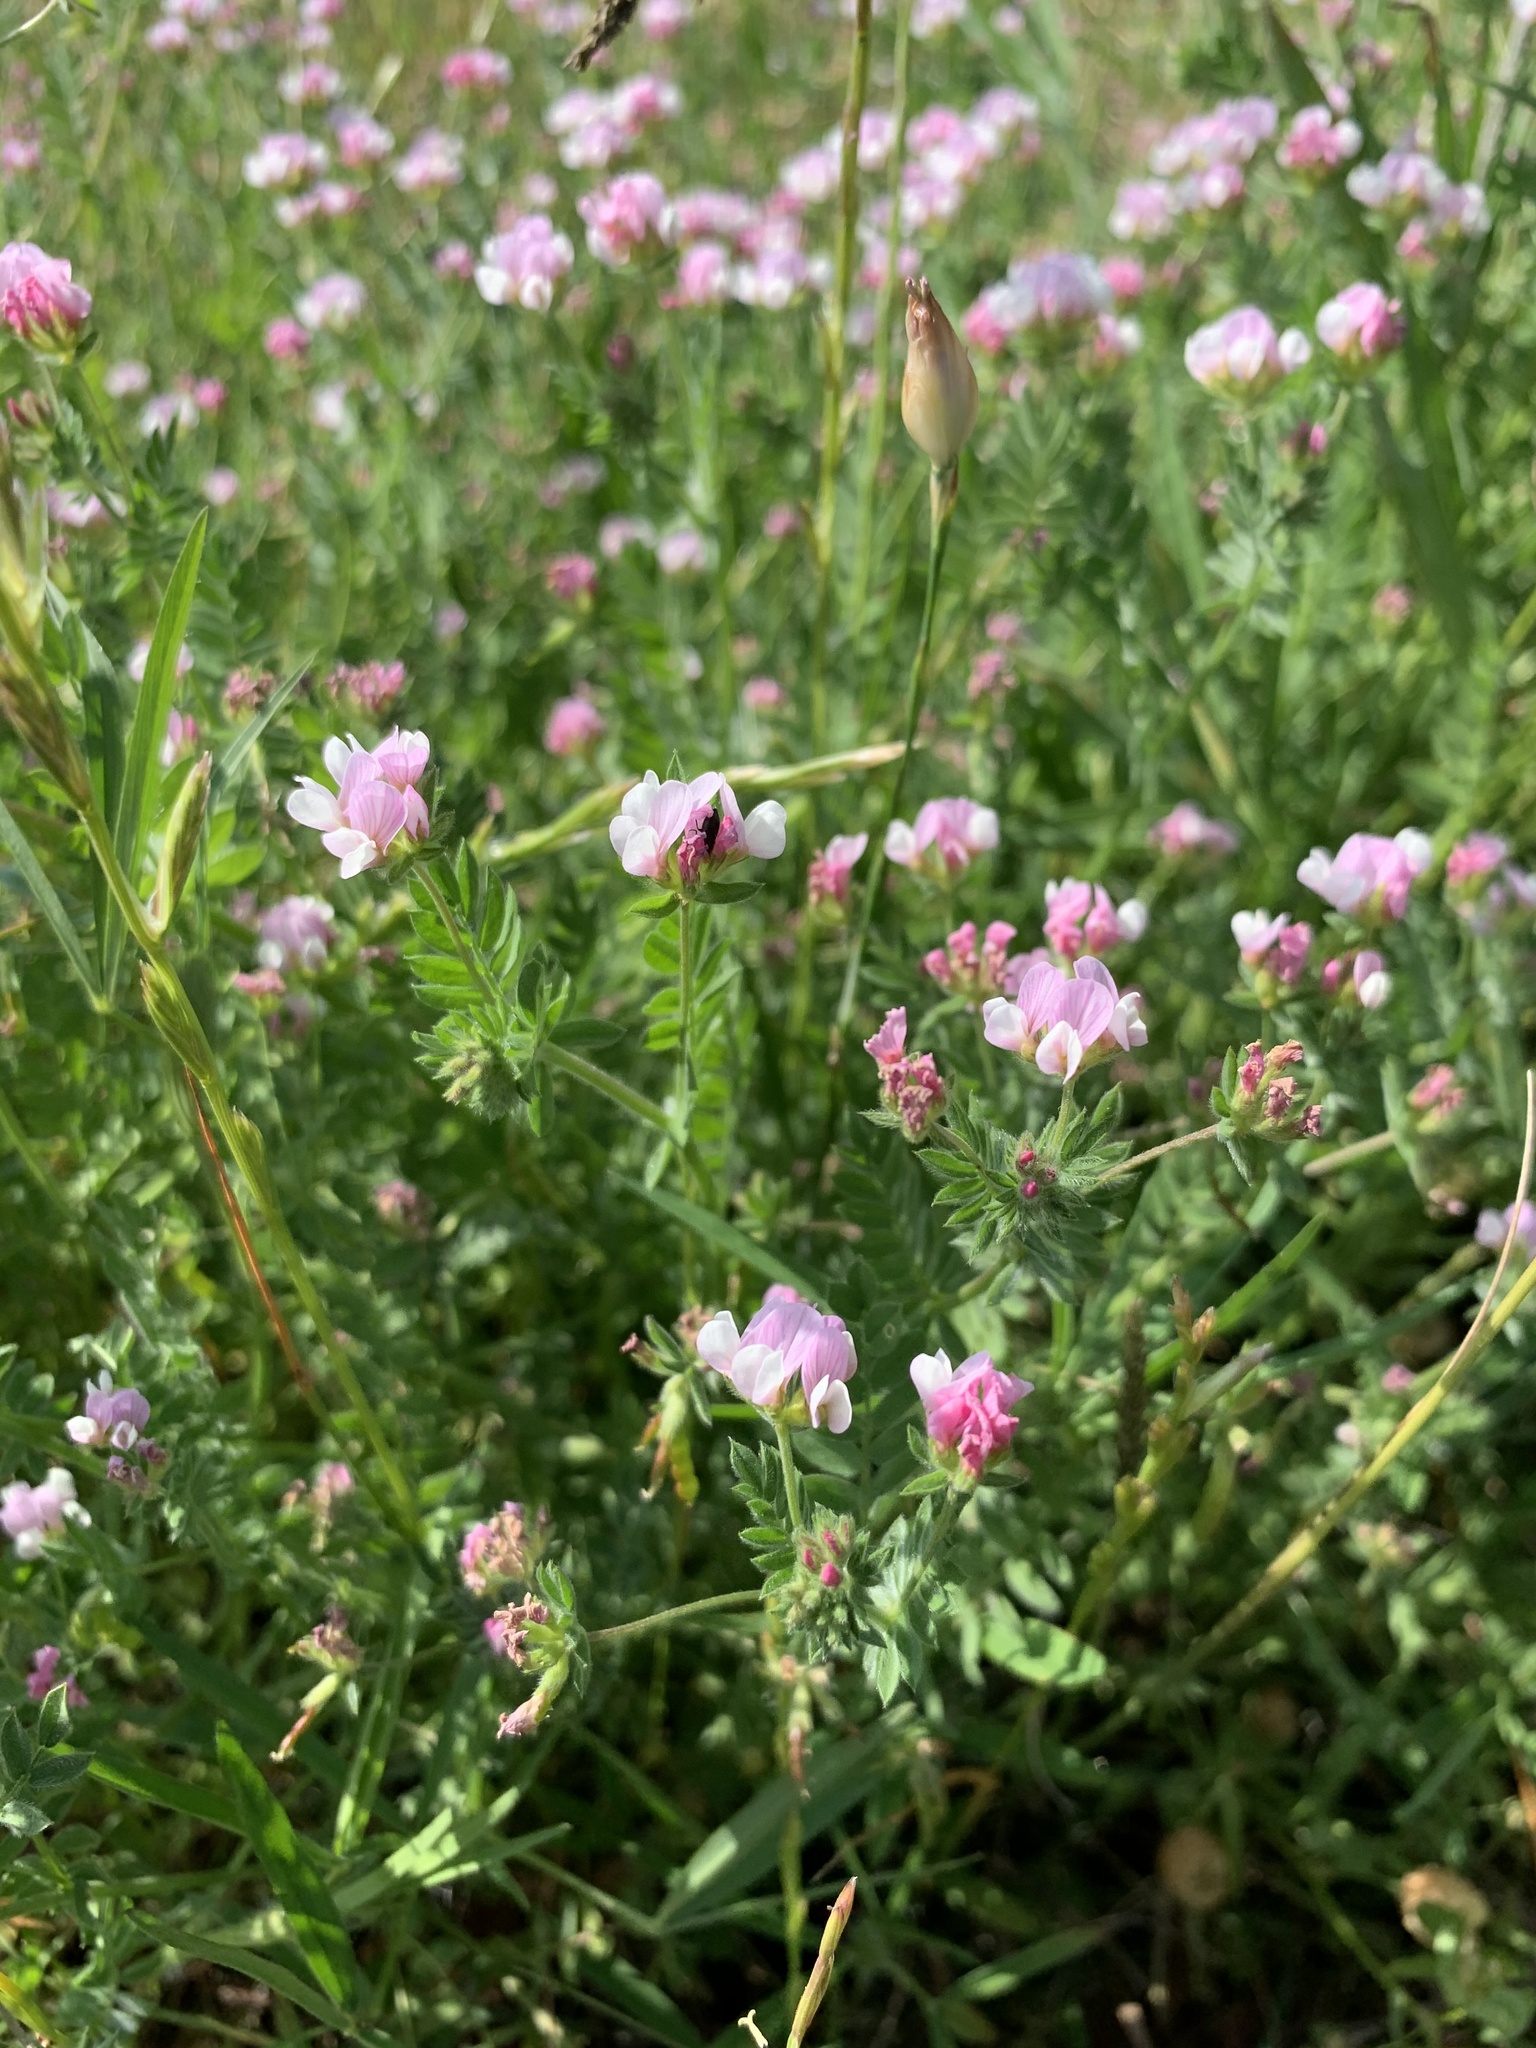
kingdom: Plantae
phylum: Tracheophyta
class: Magnoliopsida
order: Fabales
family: Fabaceae
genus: Ornithopus
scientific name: Ornithopus sativus
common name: Serradella
